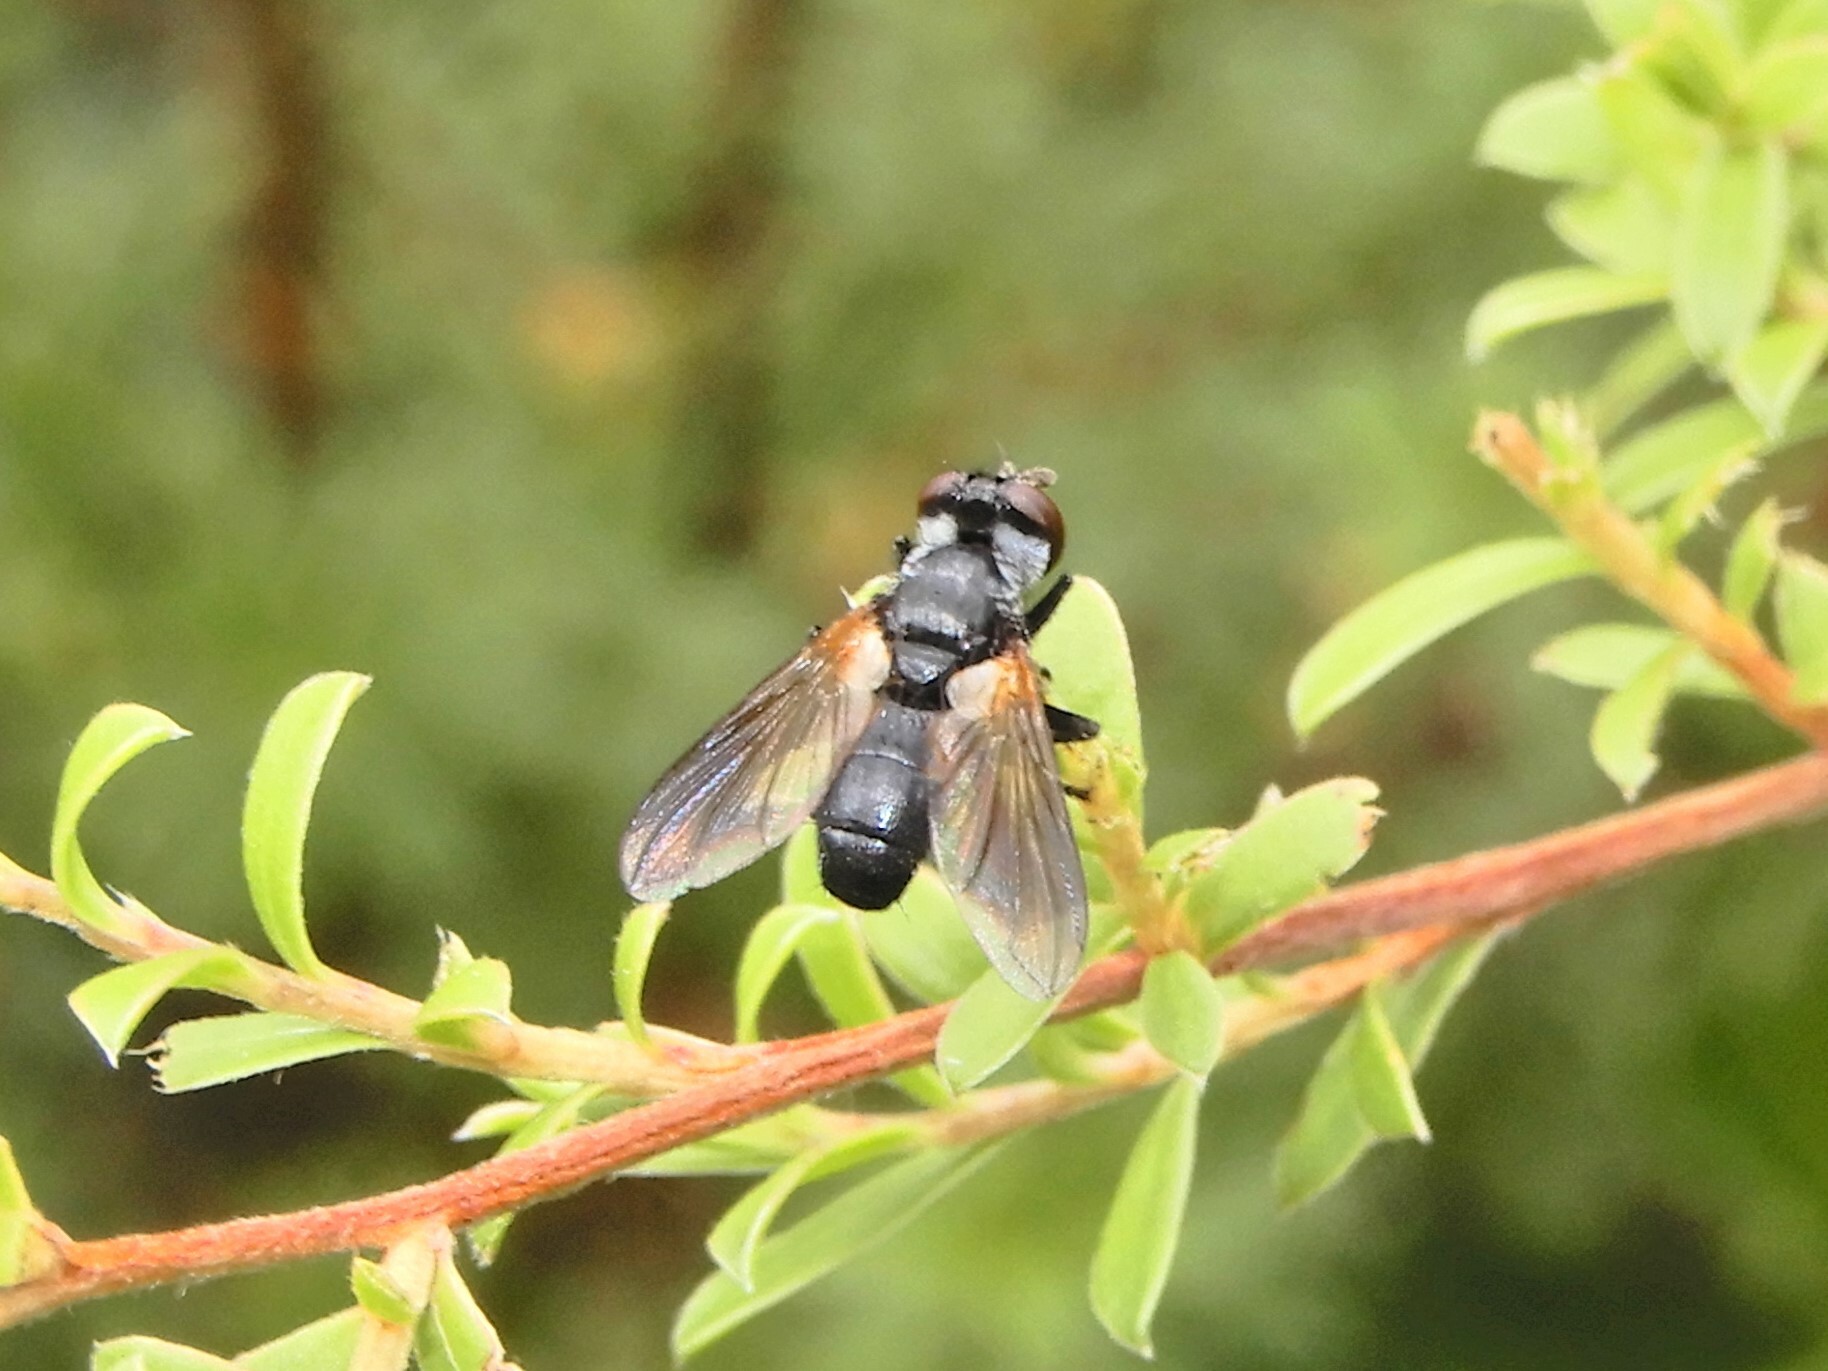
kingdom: Animalia
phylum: Arthropoda
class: Insecta
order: Diptera
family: Tachinidae
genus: Hemyda
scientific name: Hemyda
